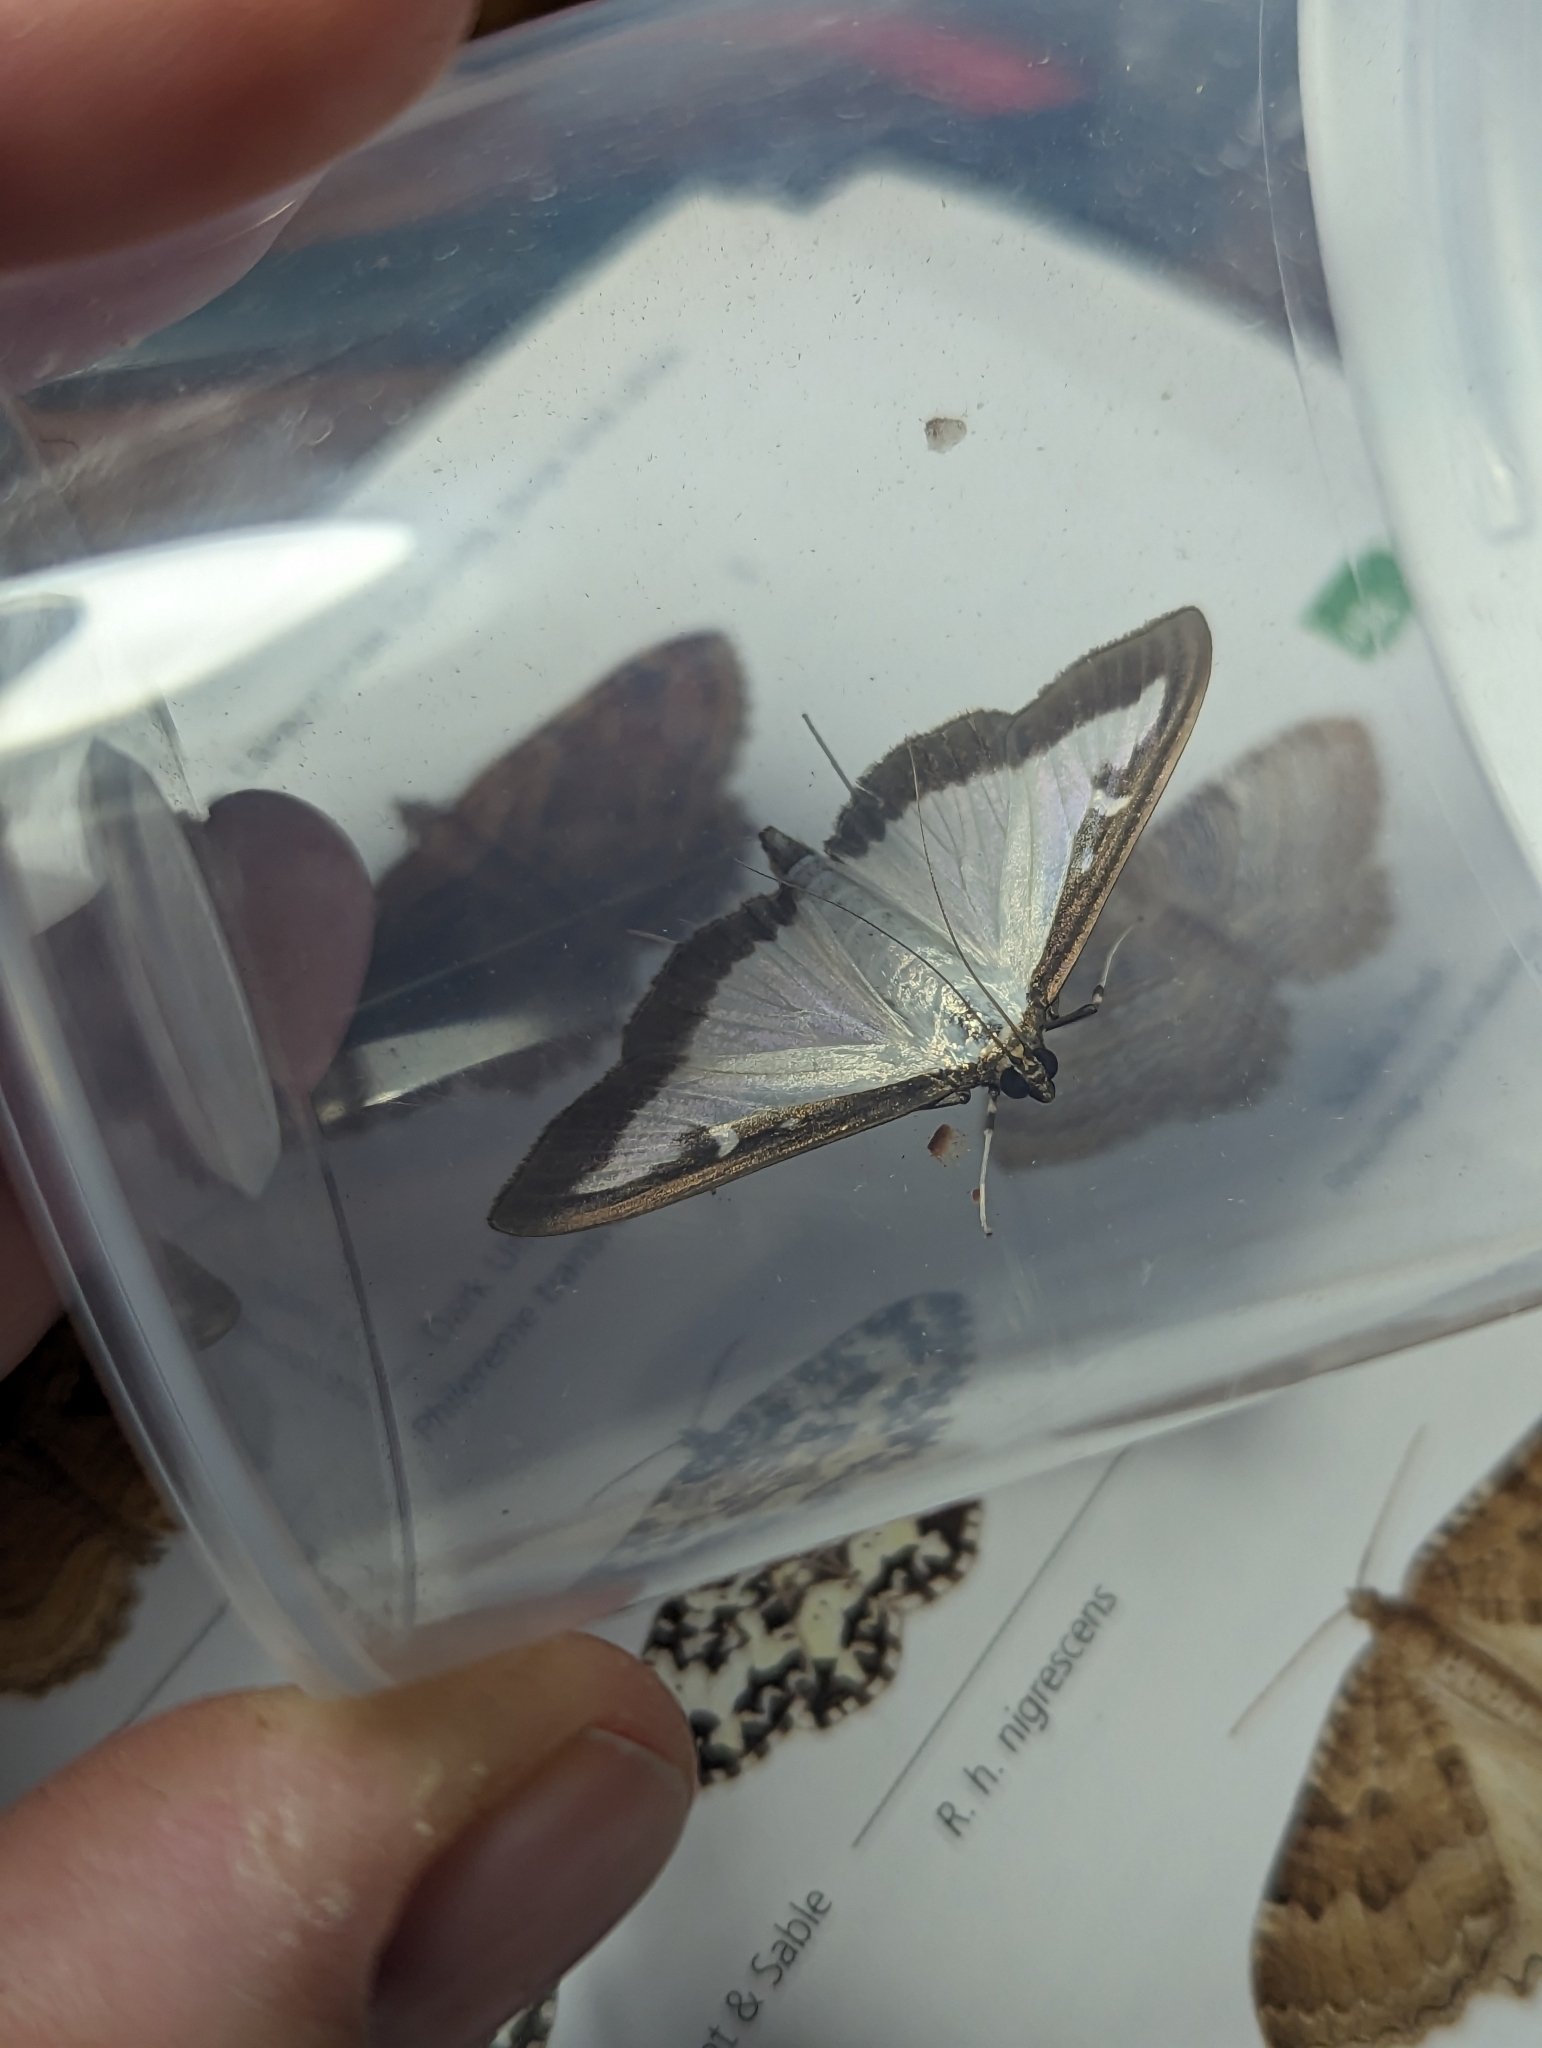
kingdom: Animalia
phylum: Arthropoda
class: Insecta
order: Lepidoptera
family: Crambidae
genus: Cydalima
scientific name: Cydalima perspectalis
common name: Box tree moth
